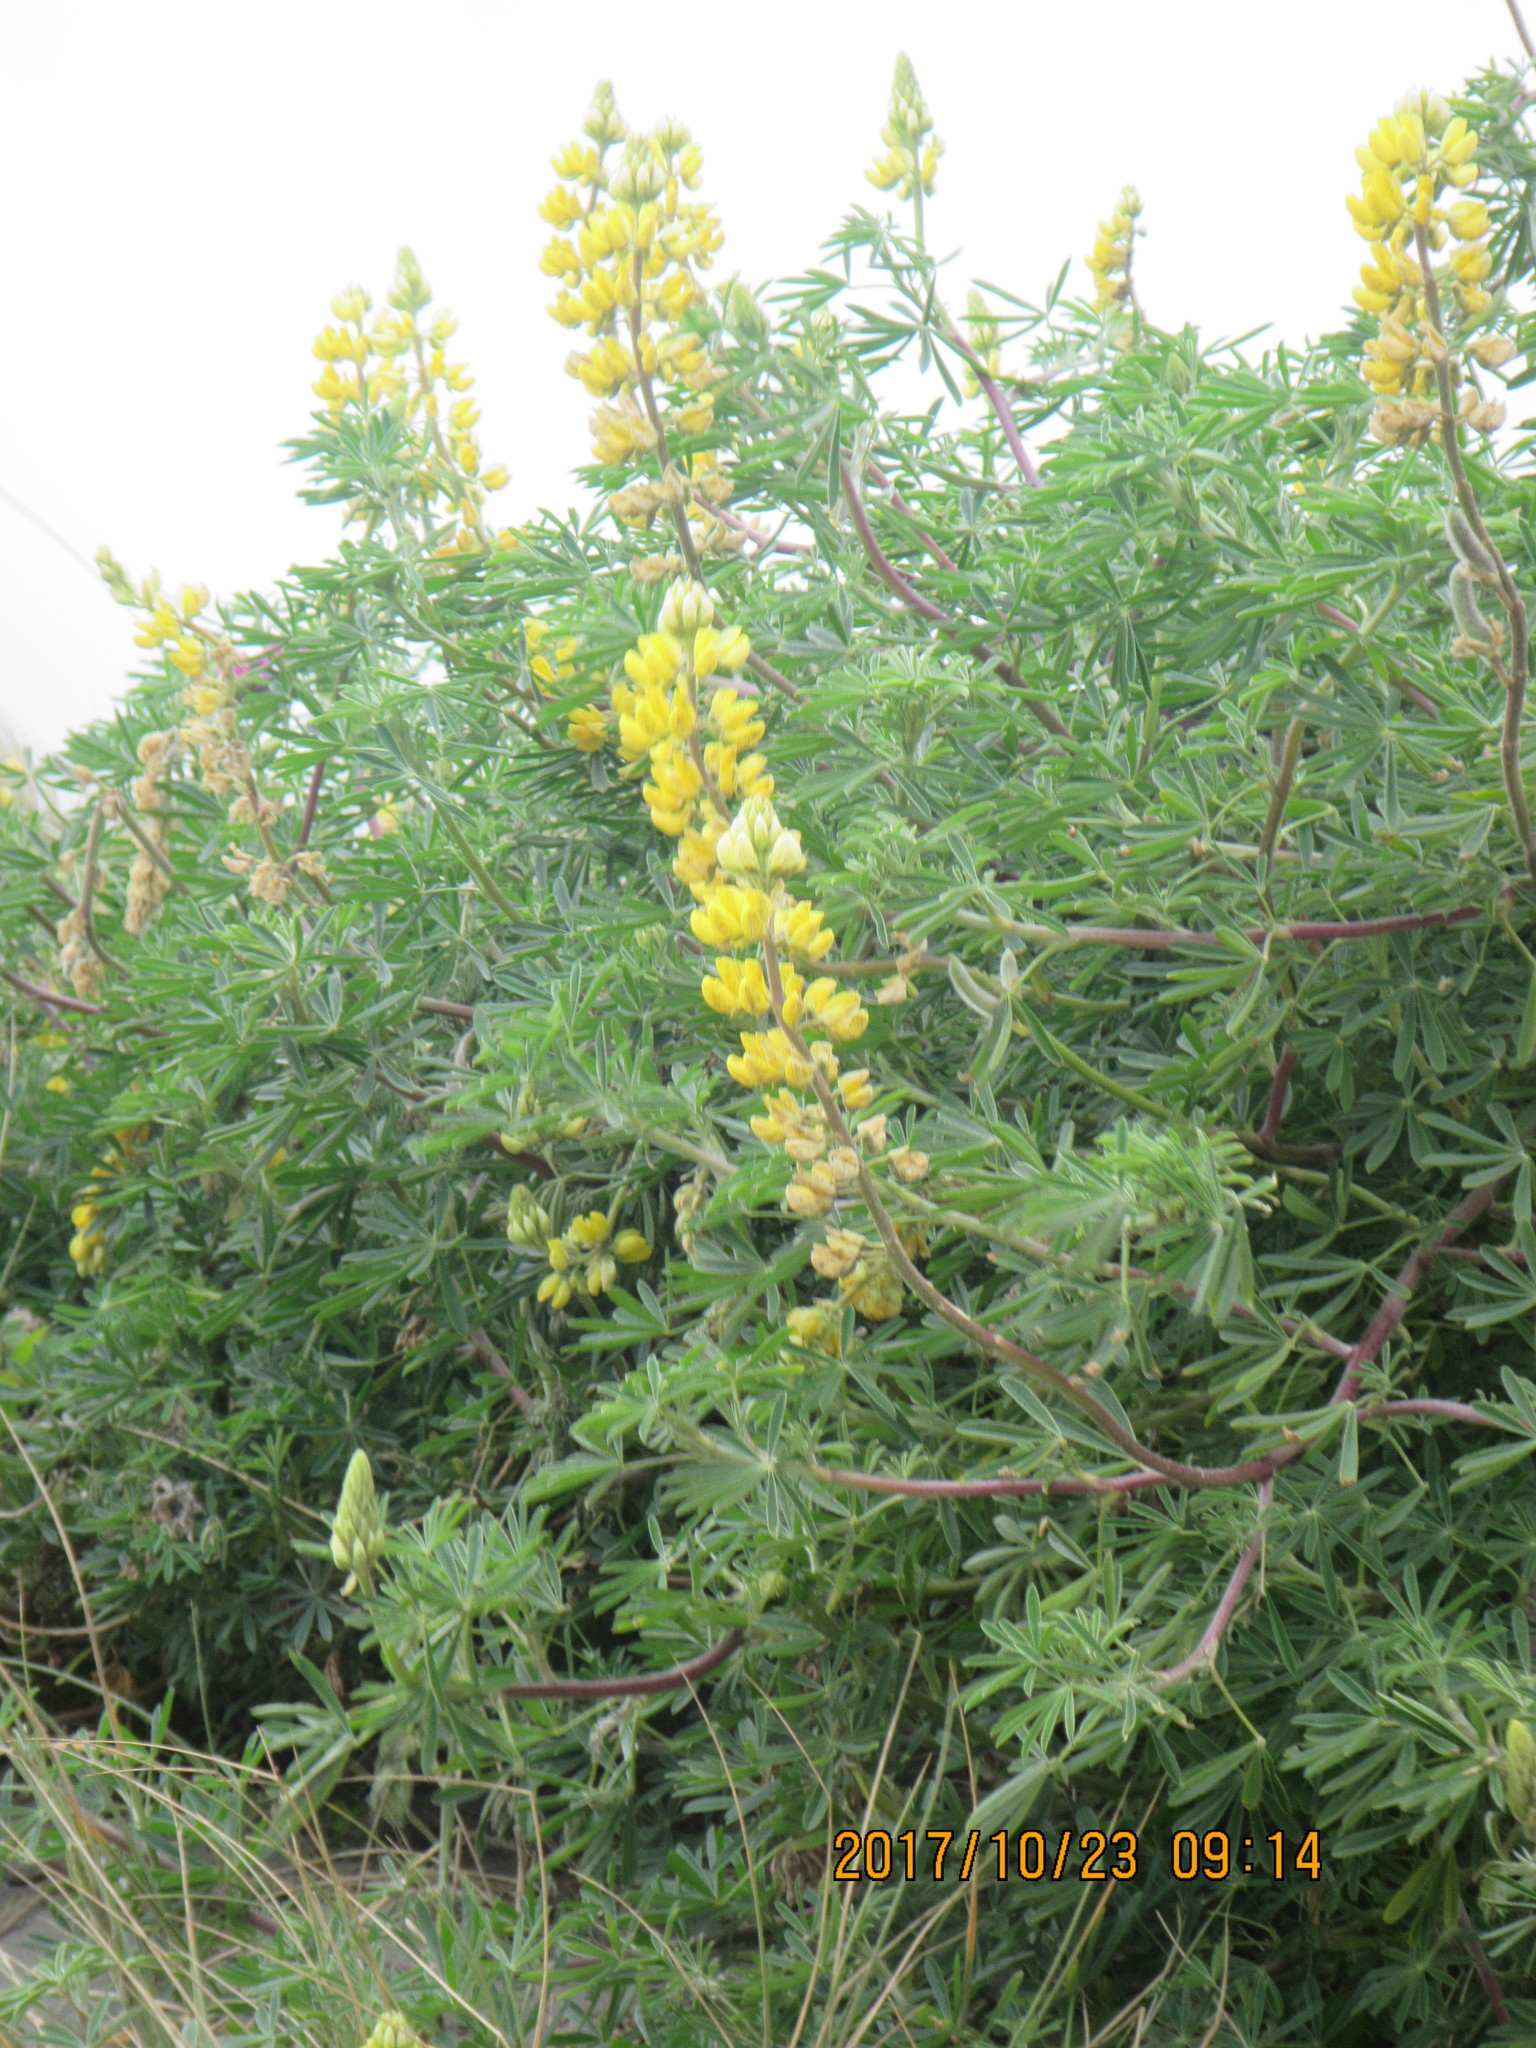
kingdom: Plantae
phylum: Tracheophyta
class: Magnoliopsida
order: Fabales
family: Fabaceae
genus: Lupinus
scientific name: Lupinus arboreus
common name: Yellow bush lupine
